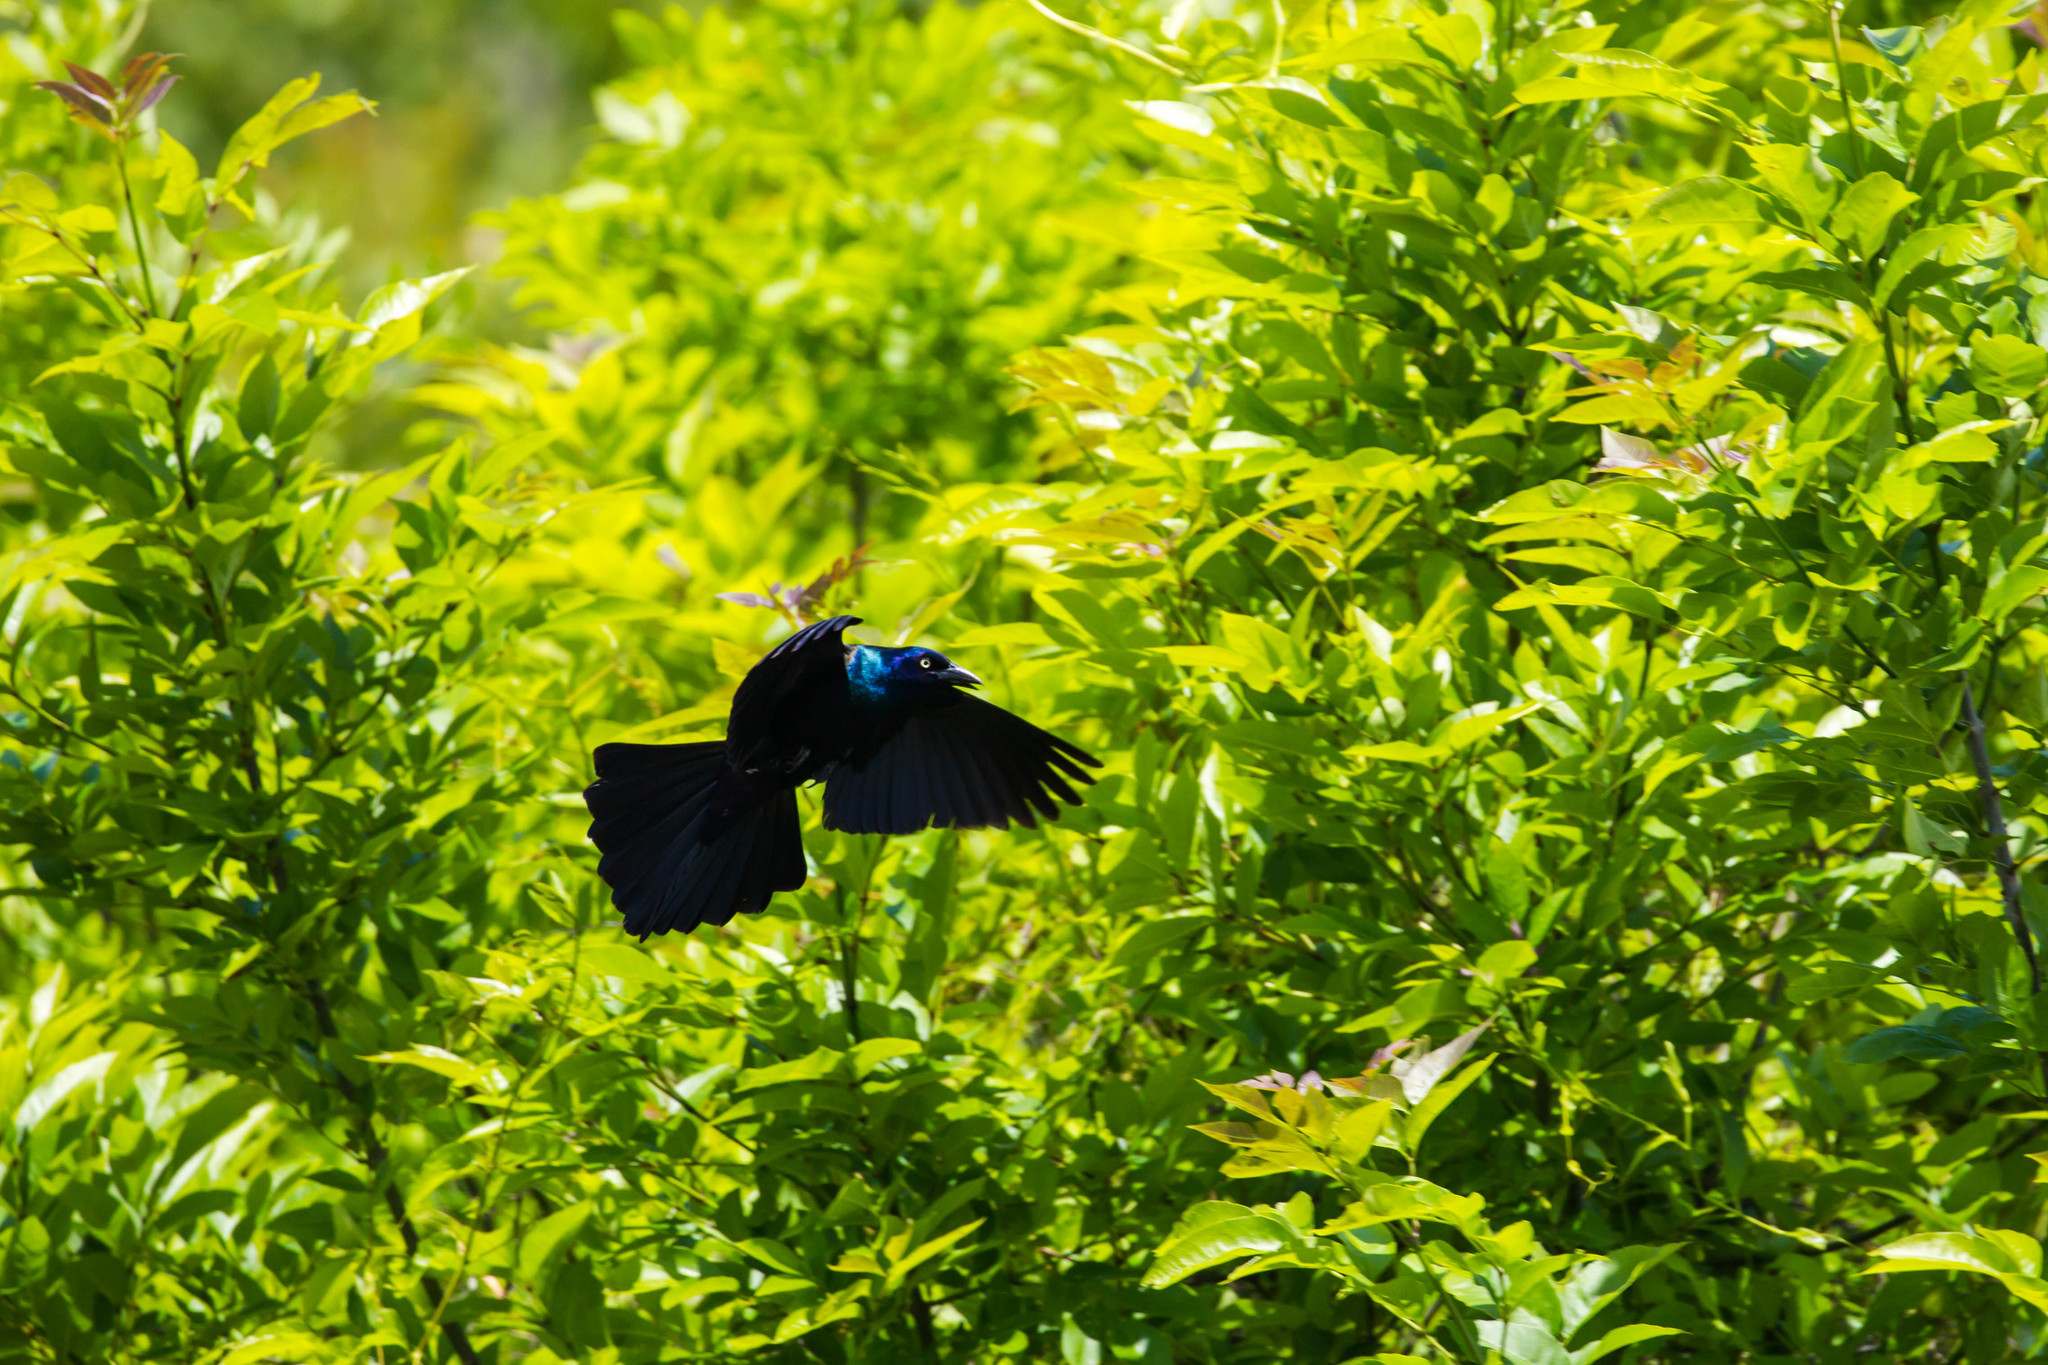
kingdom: Animalia
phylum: Chordata
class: Aves
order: Passeriformes
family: Icteridae
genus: Quiscalus
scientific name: Quiscalus quiscula
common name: Common grackle
